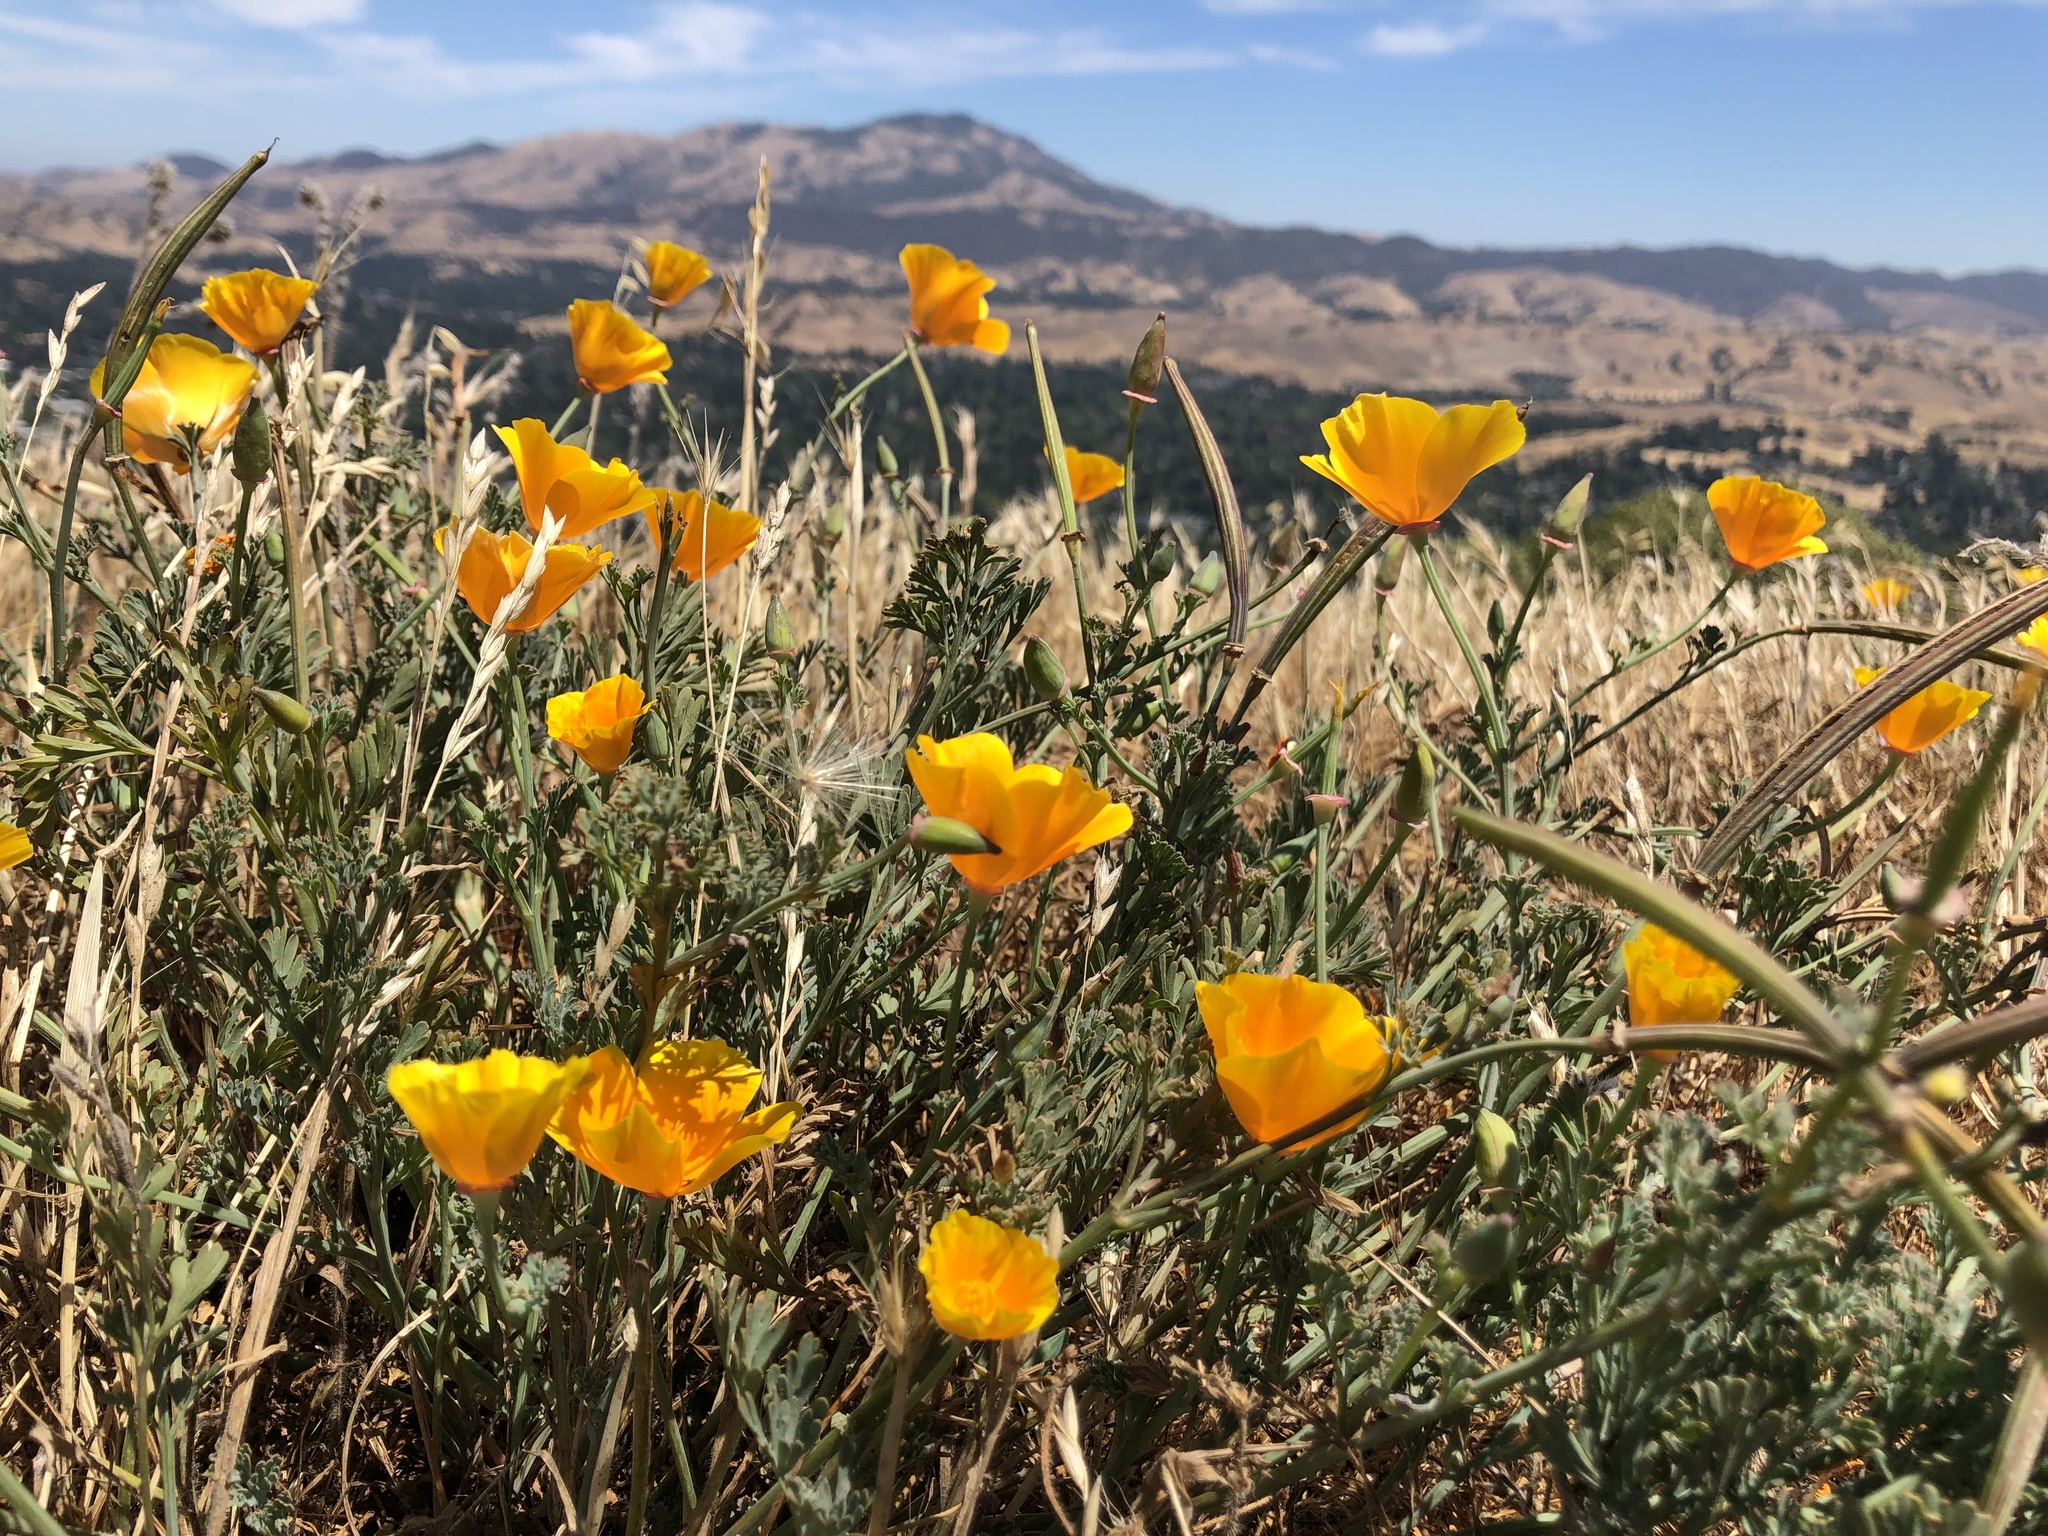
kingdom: Plantae
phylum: Tracheophyta
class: Magnoliopsida
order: Ranunculales
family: Papaveraceae
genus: Eschscholzia
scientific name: Eschscholzia californica
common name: California poppy
